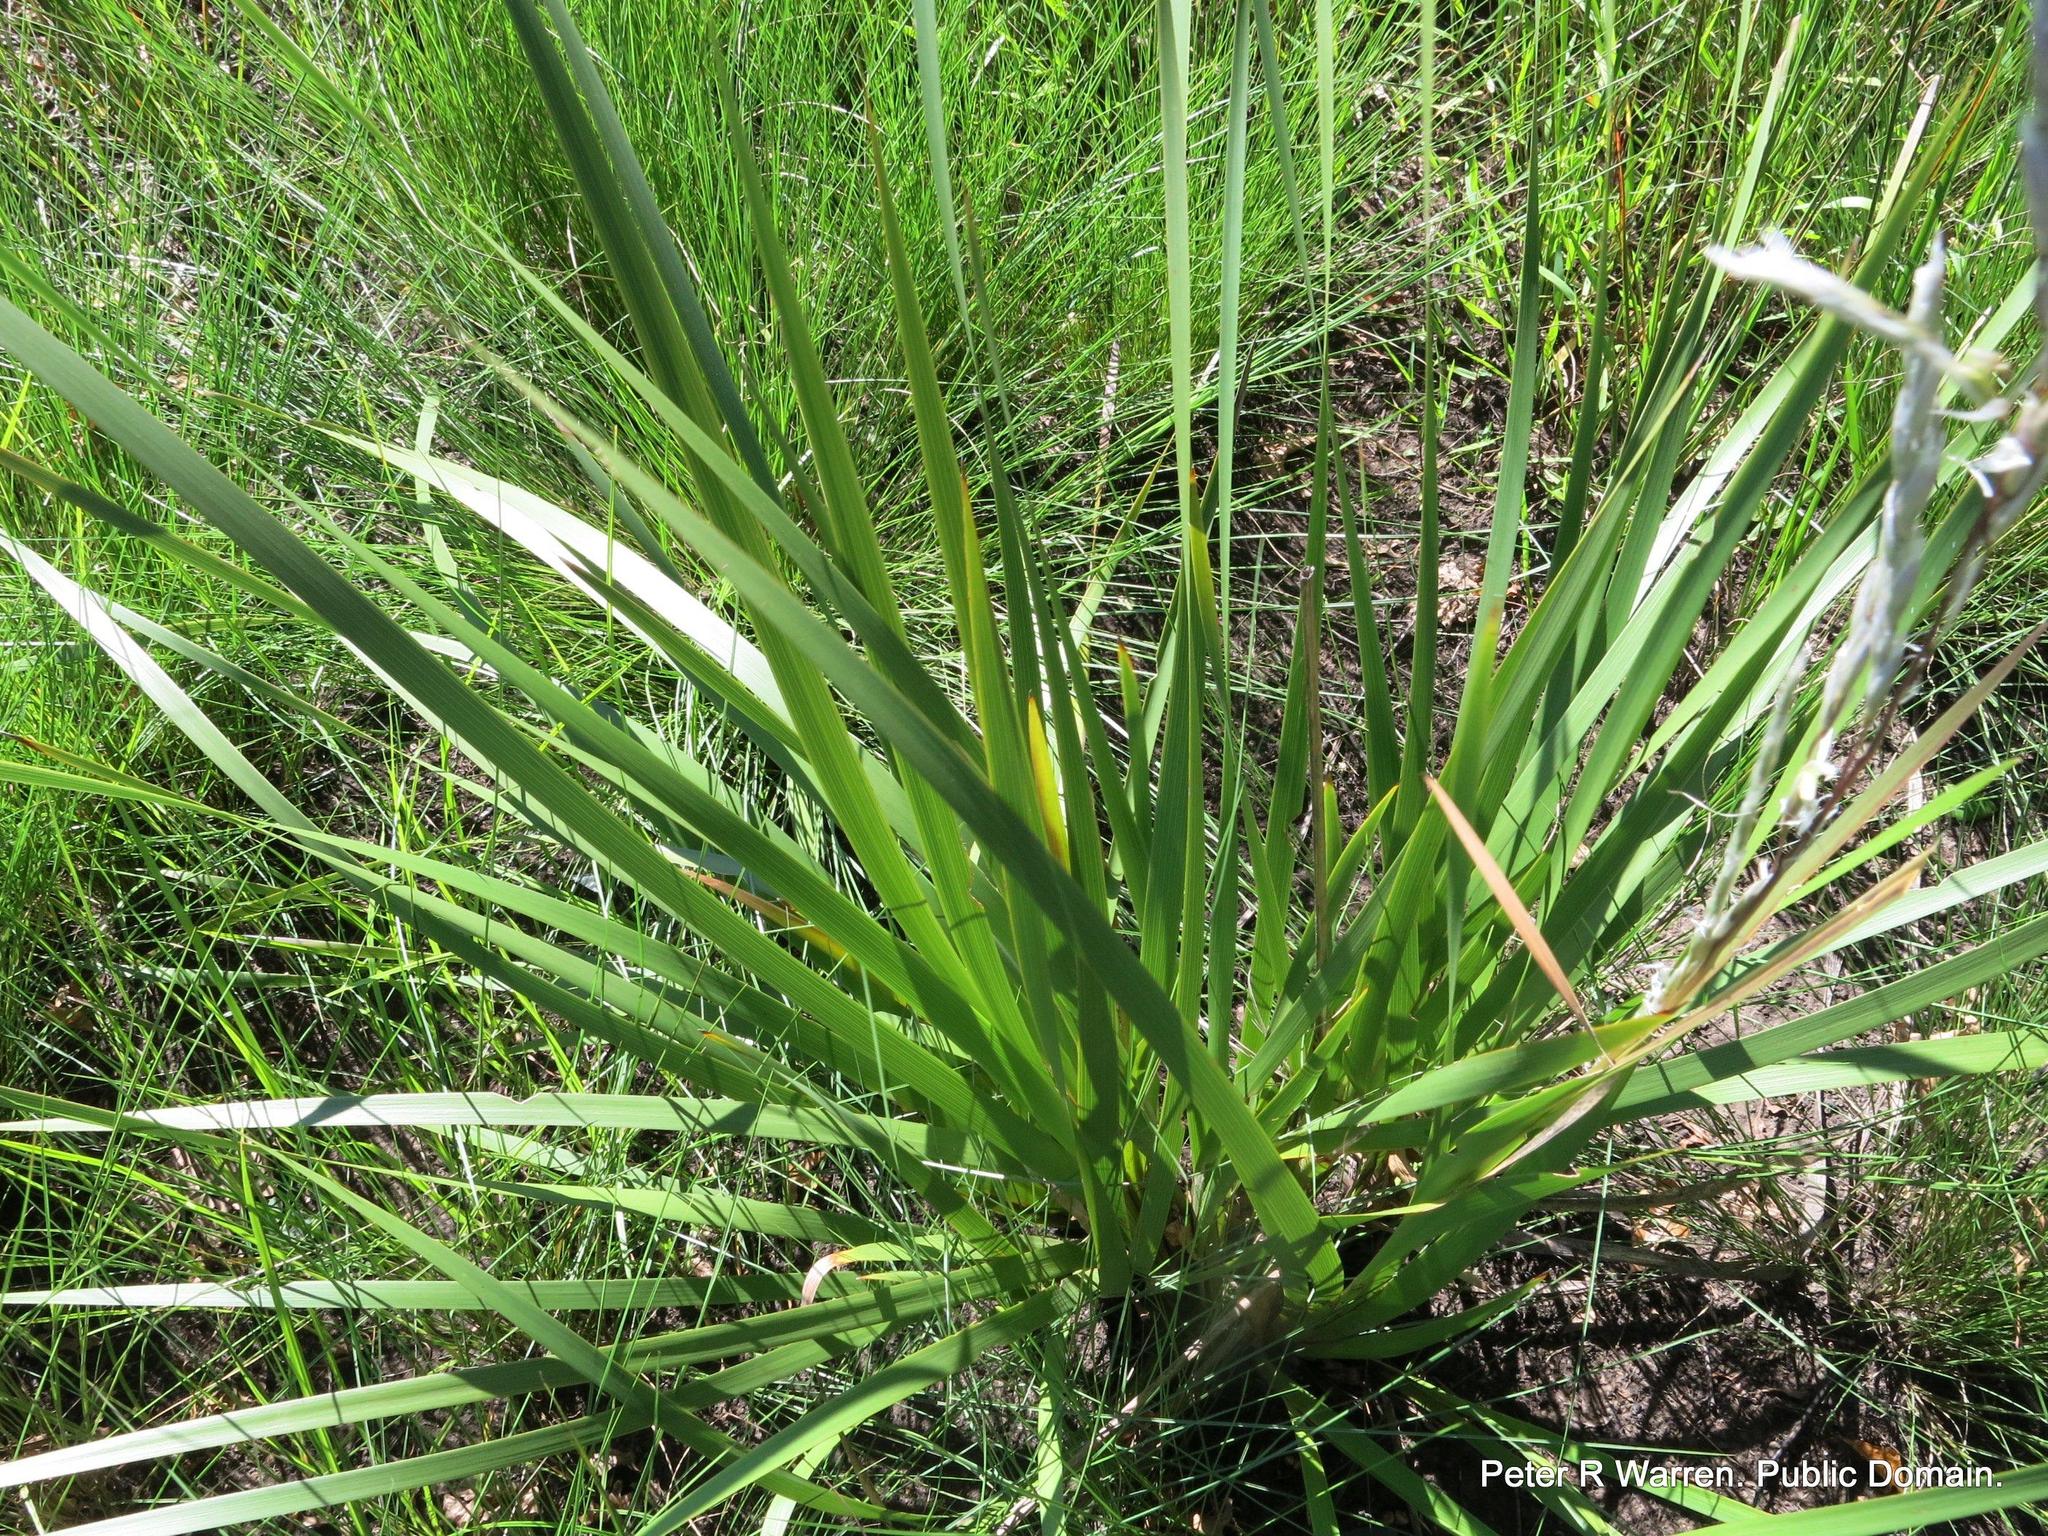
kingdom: Plantae
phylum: Tracheophyta
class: Liliopsida
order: Asparagales
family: Iridaceae
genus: Dierama
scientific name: Dierama latifolium
